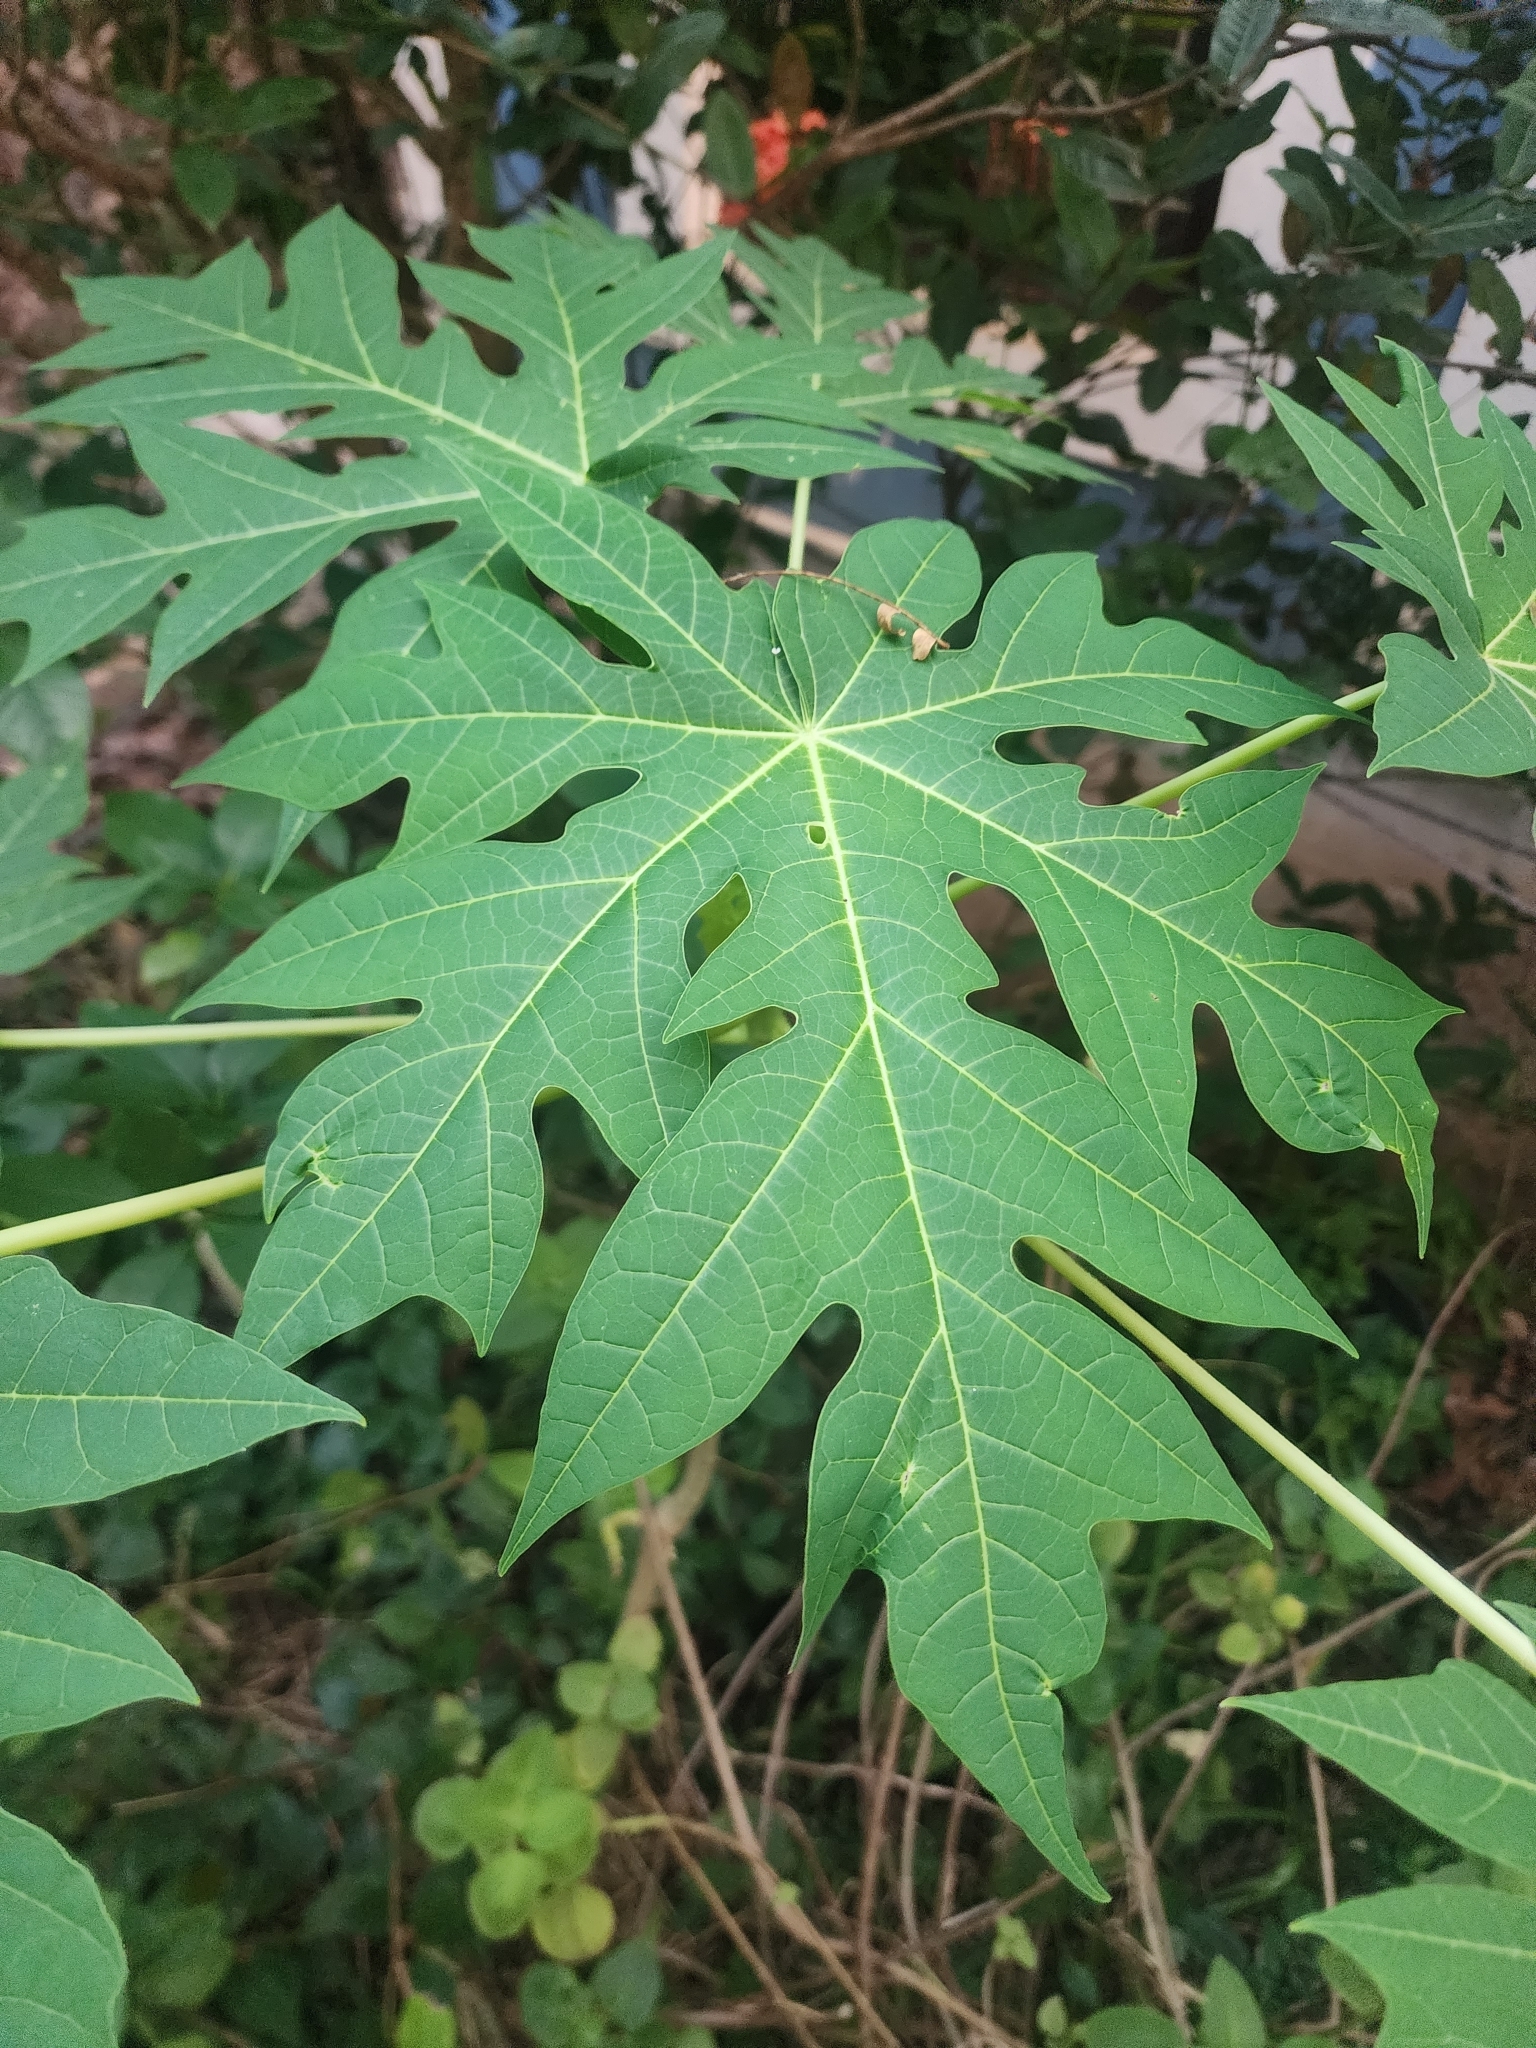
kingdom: Plantae
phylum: Tracheophyta
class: Magnoliopsida
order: Brassicales
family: Caricaceae
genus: Carica
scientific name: Carica papaya
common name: Papaya
